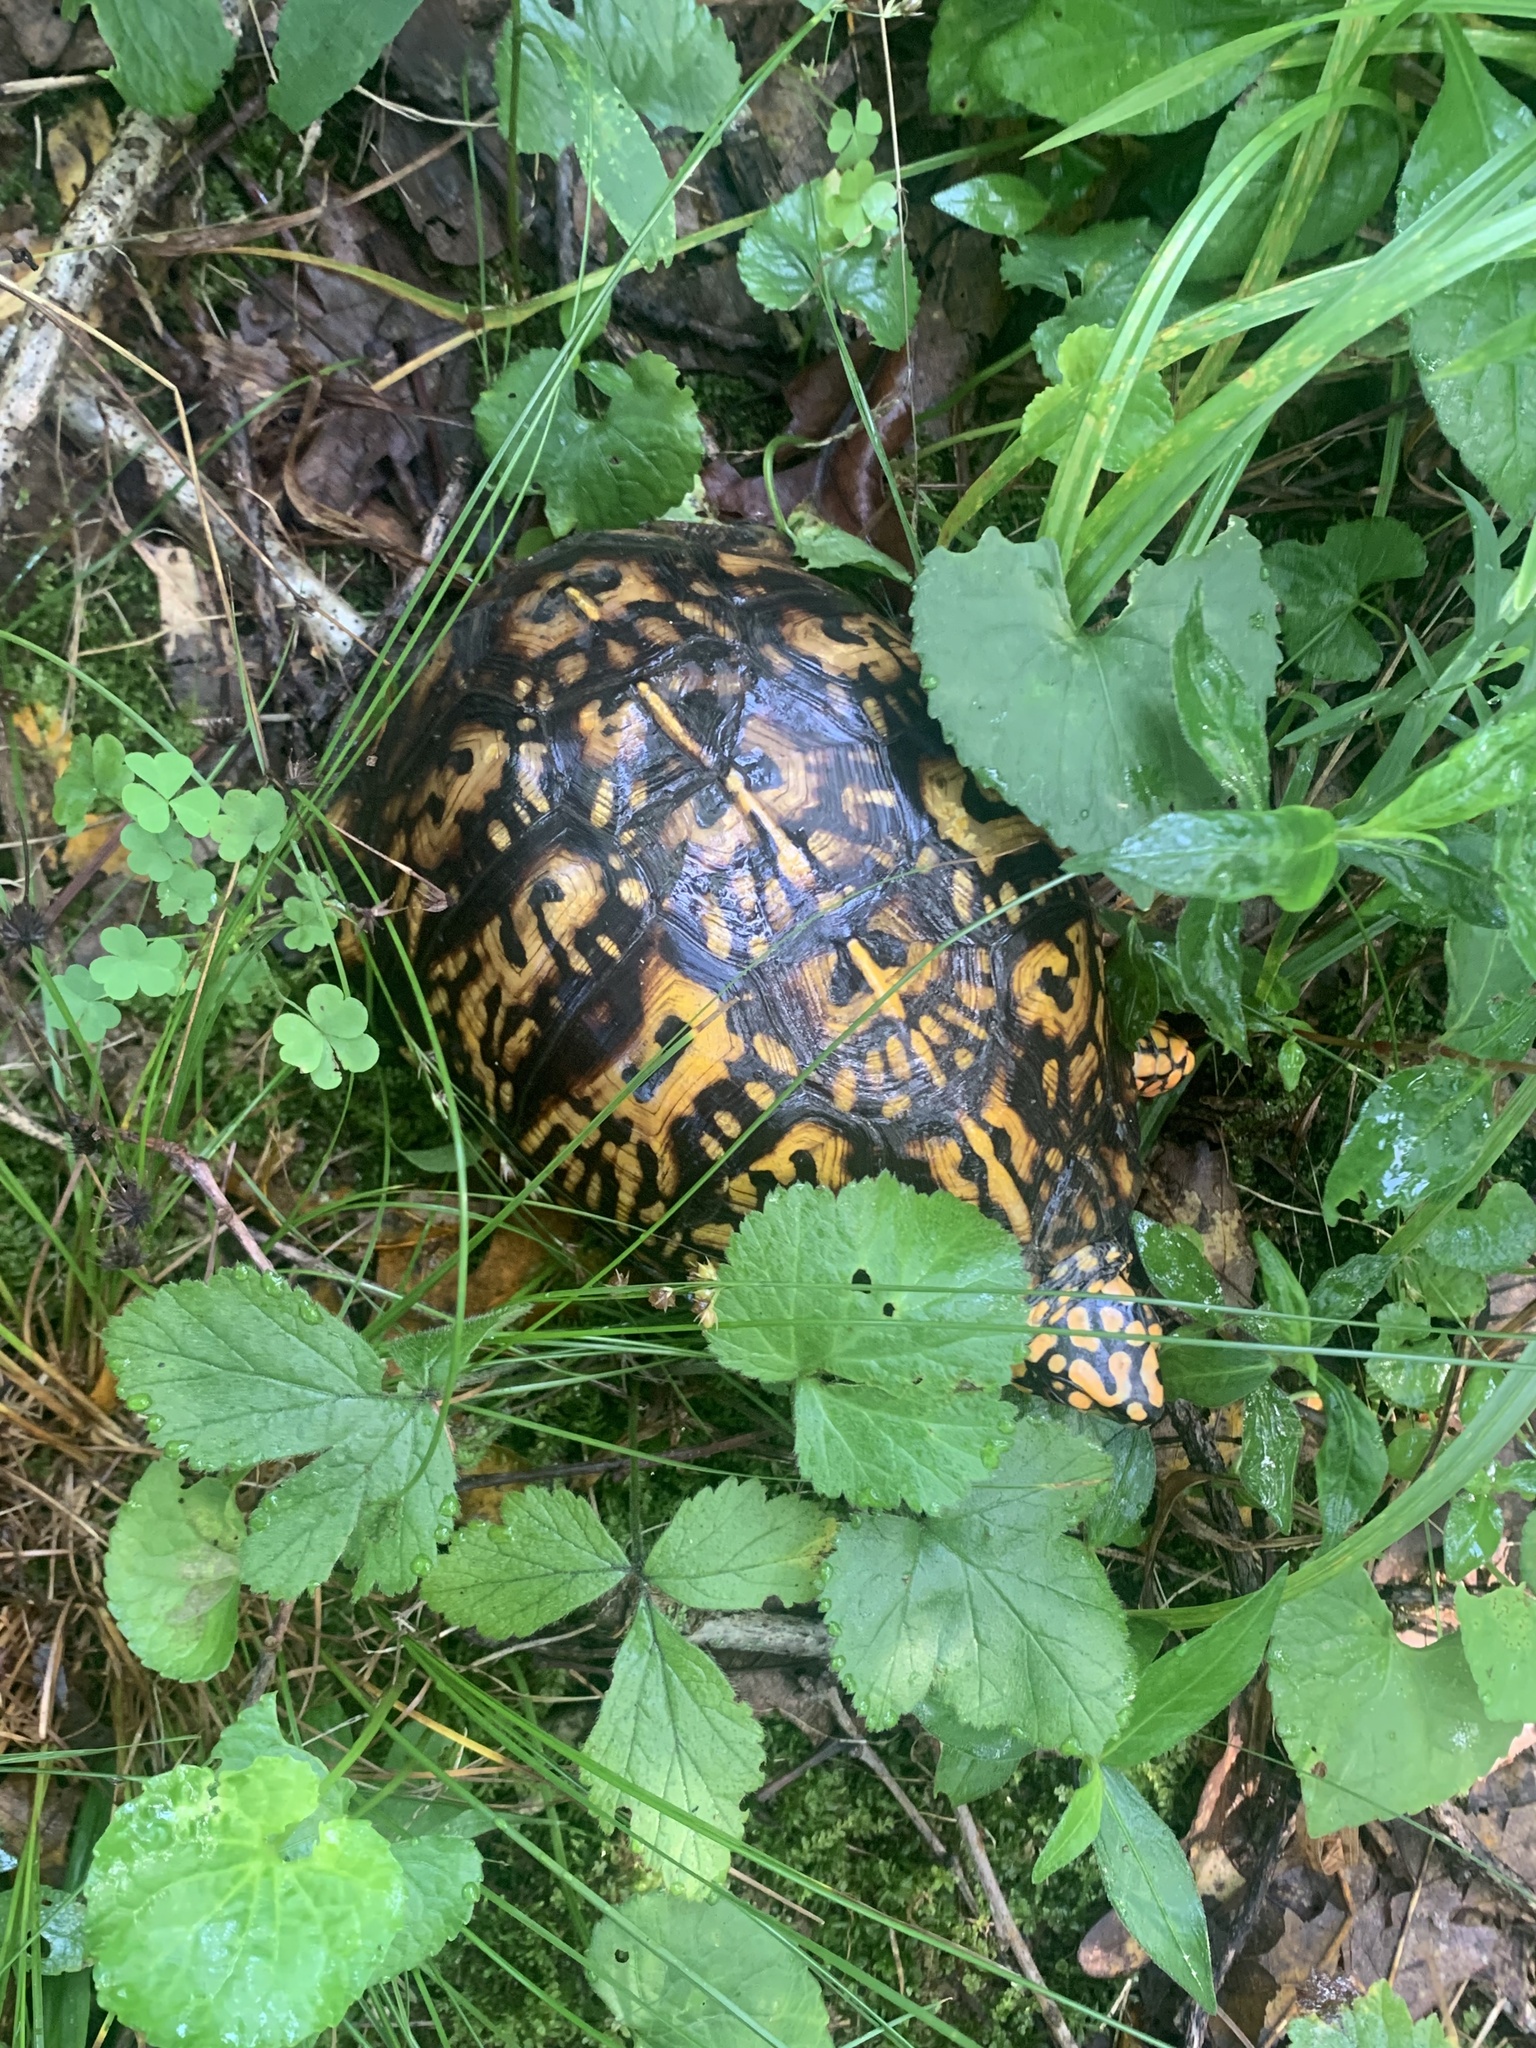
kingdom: Animalia
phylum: Chordata
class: Testudines
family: Emydidae
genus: Terrapene
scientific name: Terrapene carolina
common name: Common box turtle
